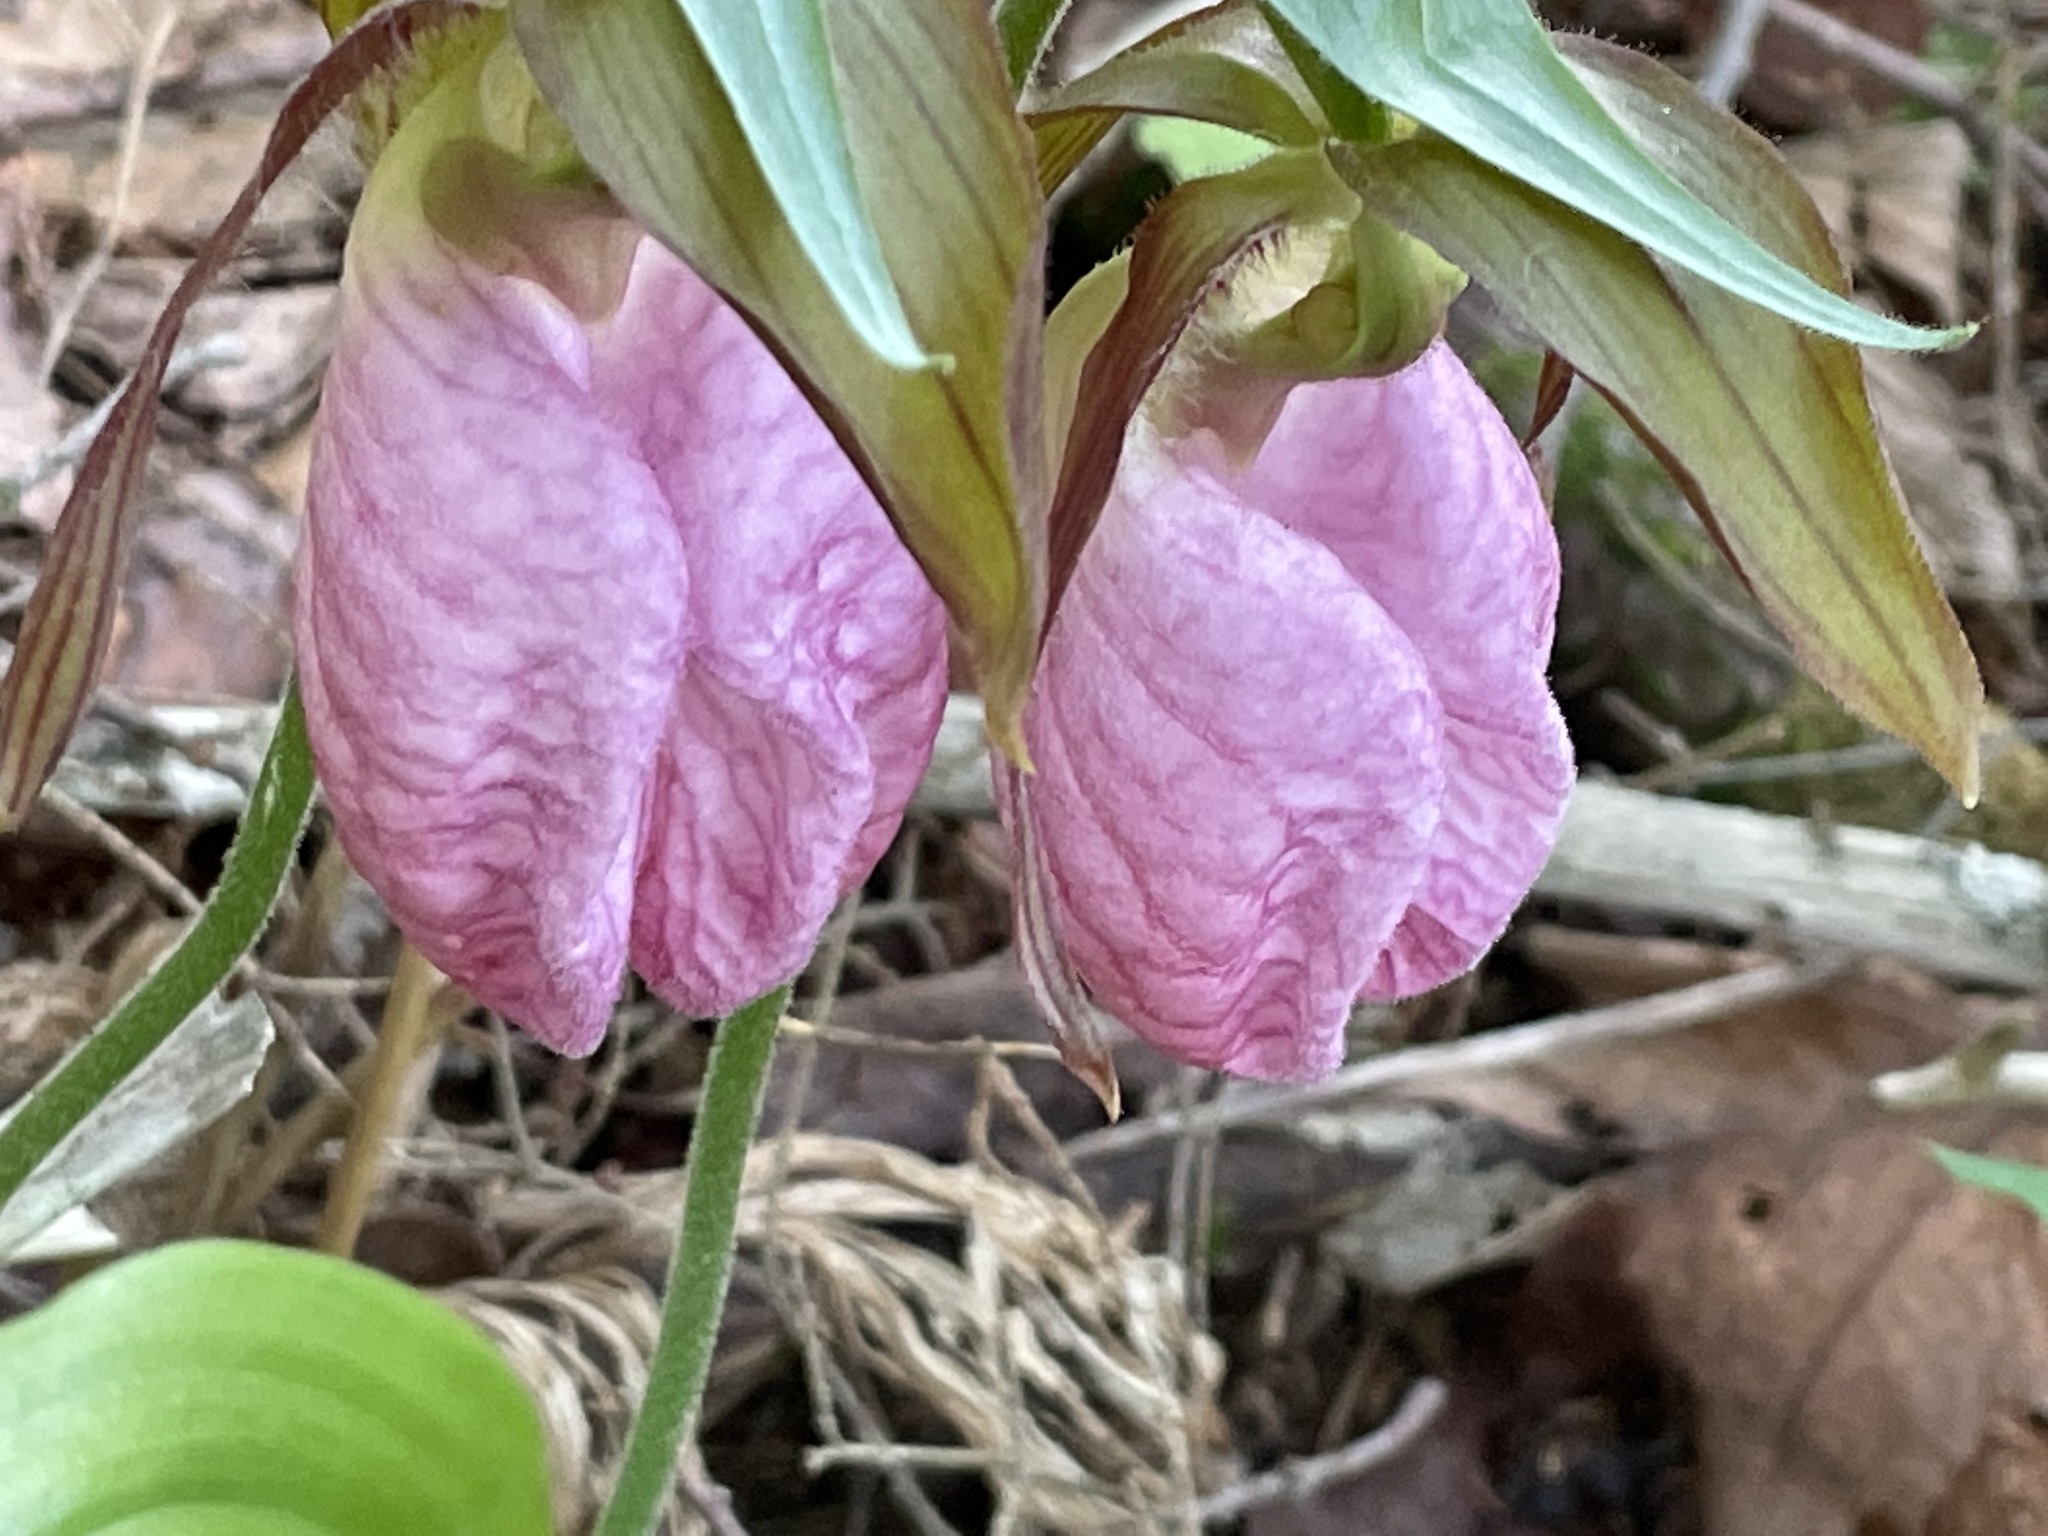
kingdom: Plantae
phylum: Tracheophyta
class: Liliopsida
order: Asparagales
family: Orchidaceae
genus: Cypripedium
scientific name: Cypripedium acaule
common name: Pink lady's-slipper
